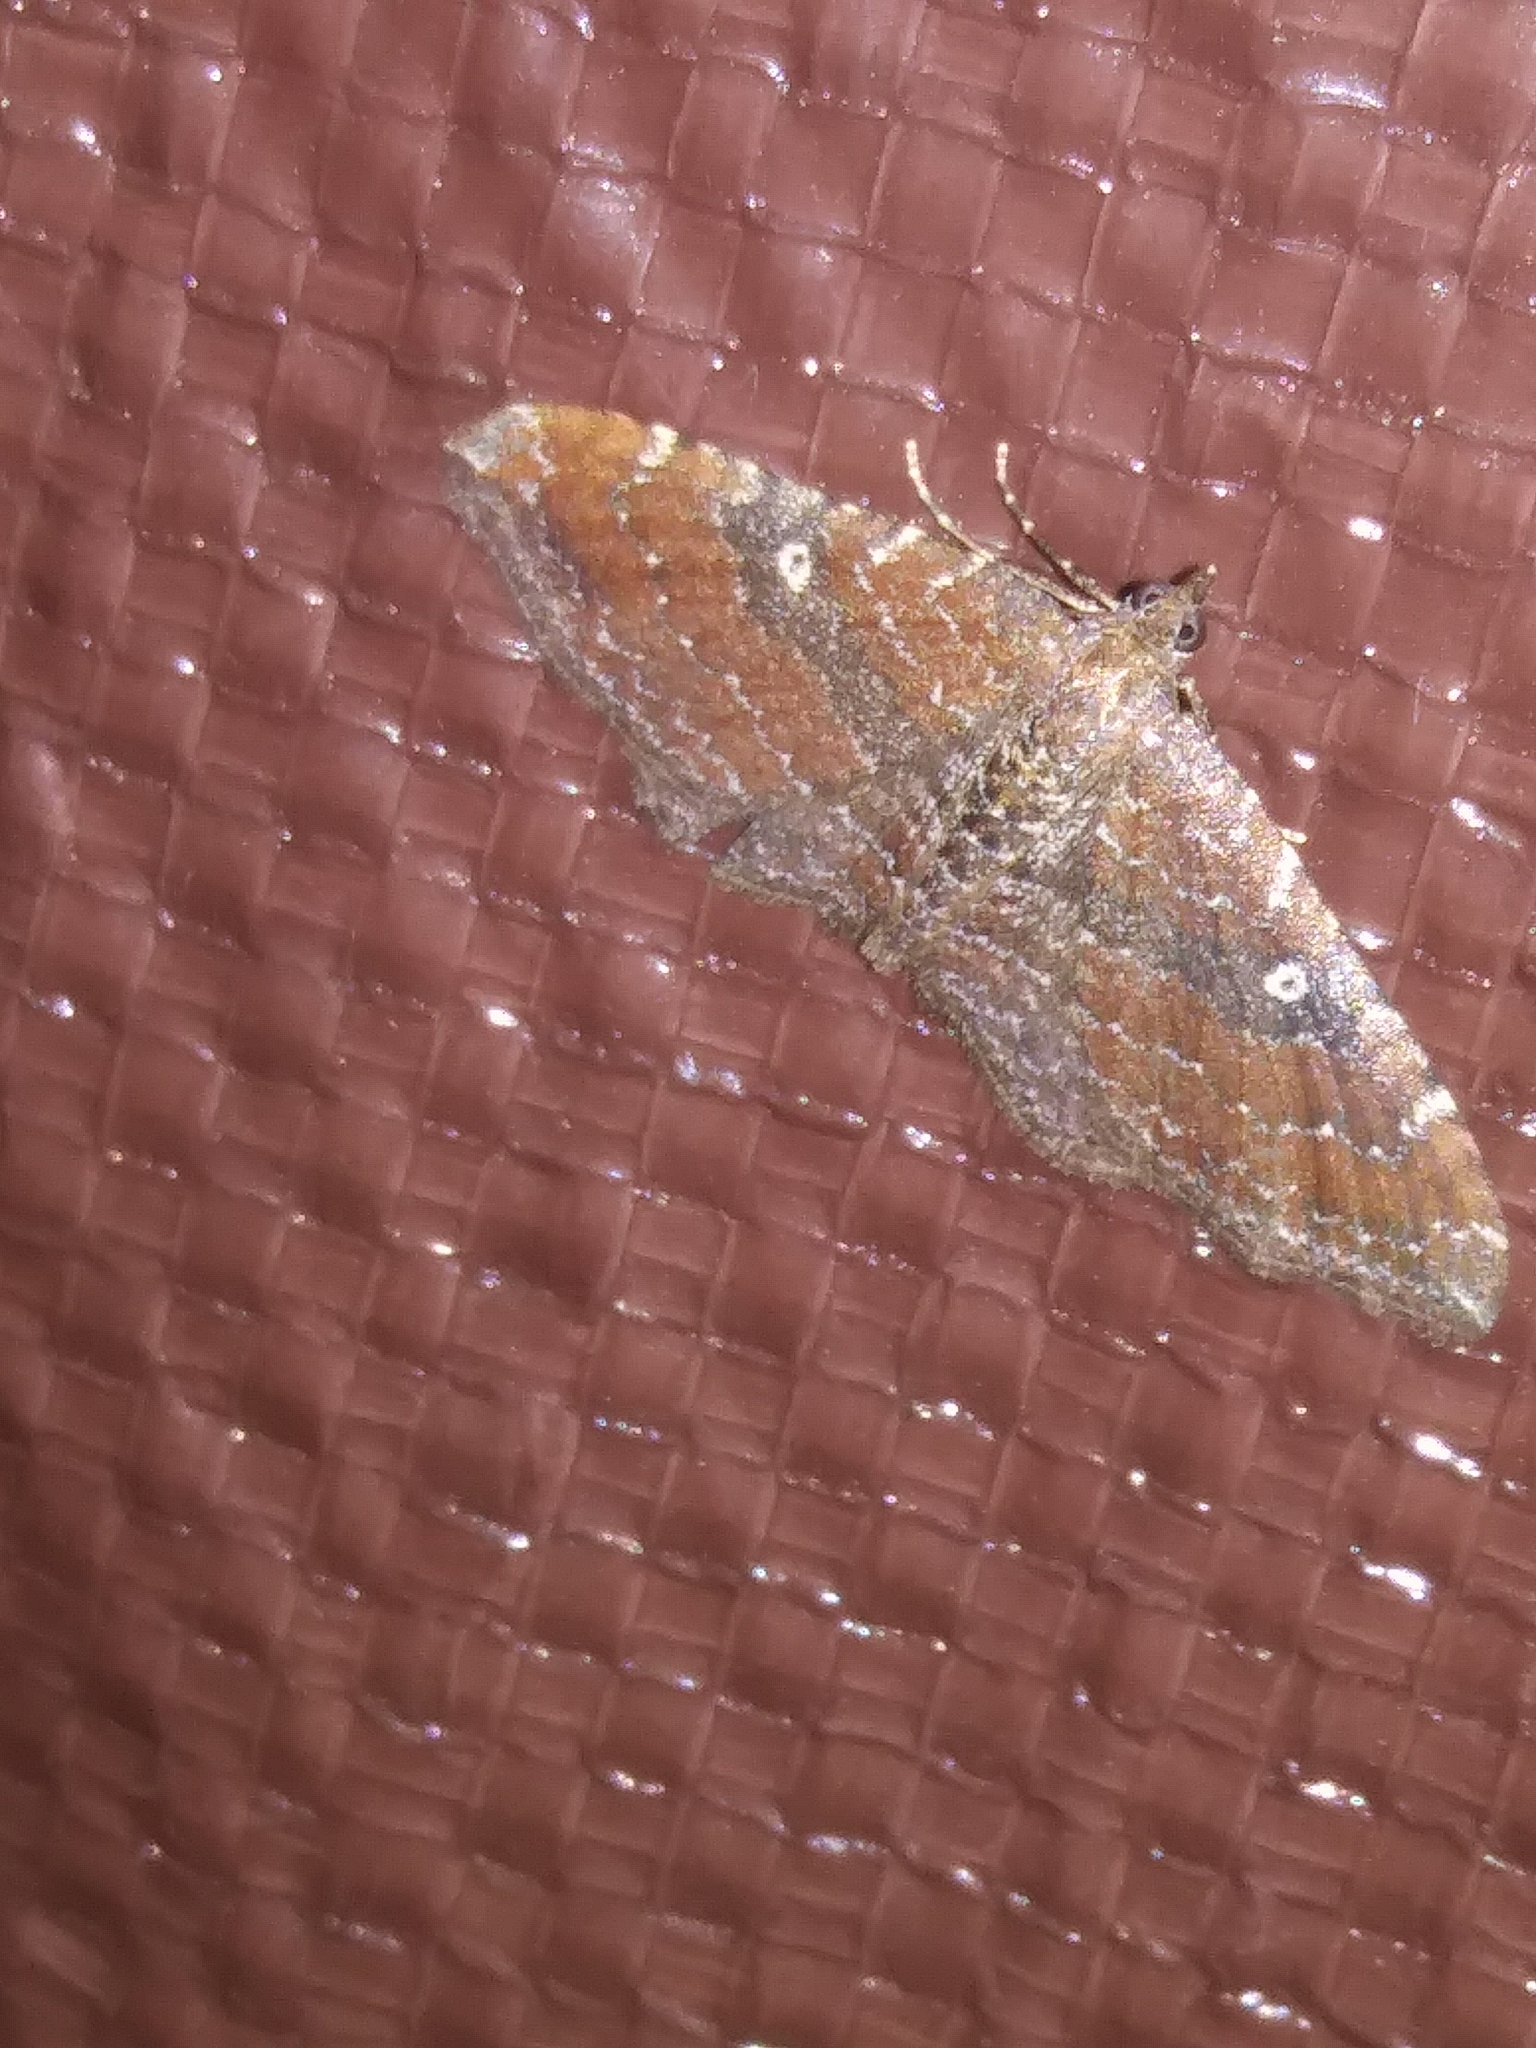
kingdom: Animalia
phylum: Arthropoda
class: Insecta
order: Lepidoptera
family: Geometridae
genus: Orthonama
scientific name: Orthonama obstipata
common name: The gem
